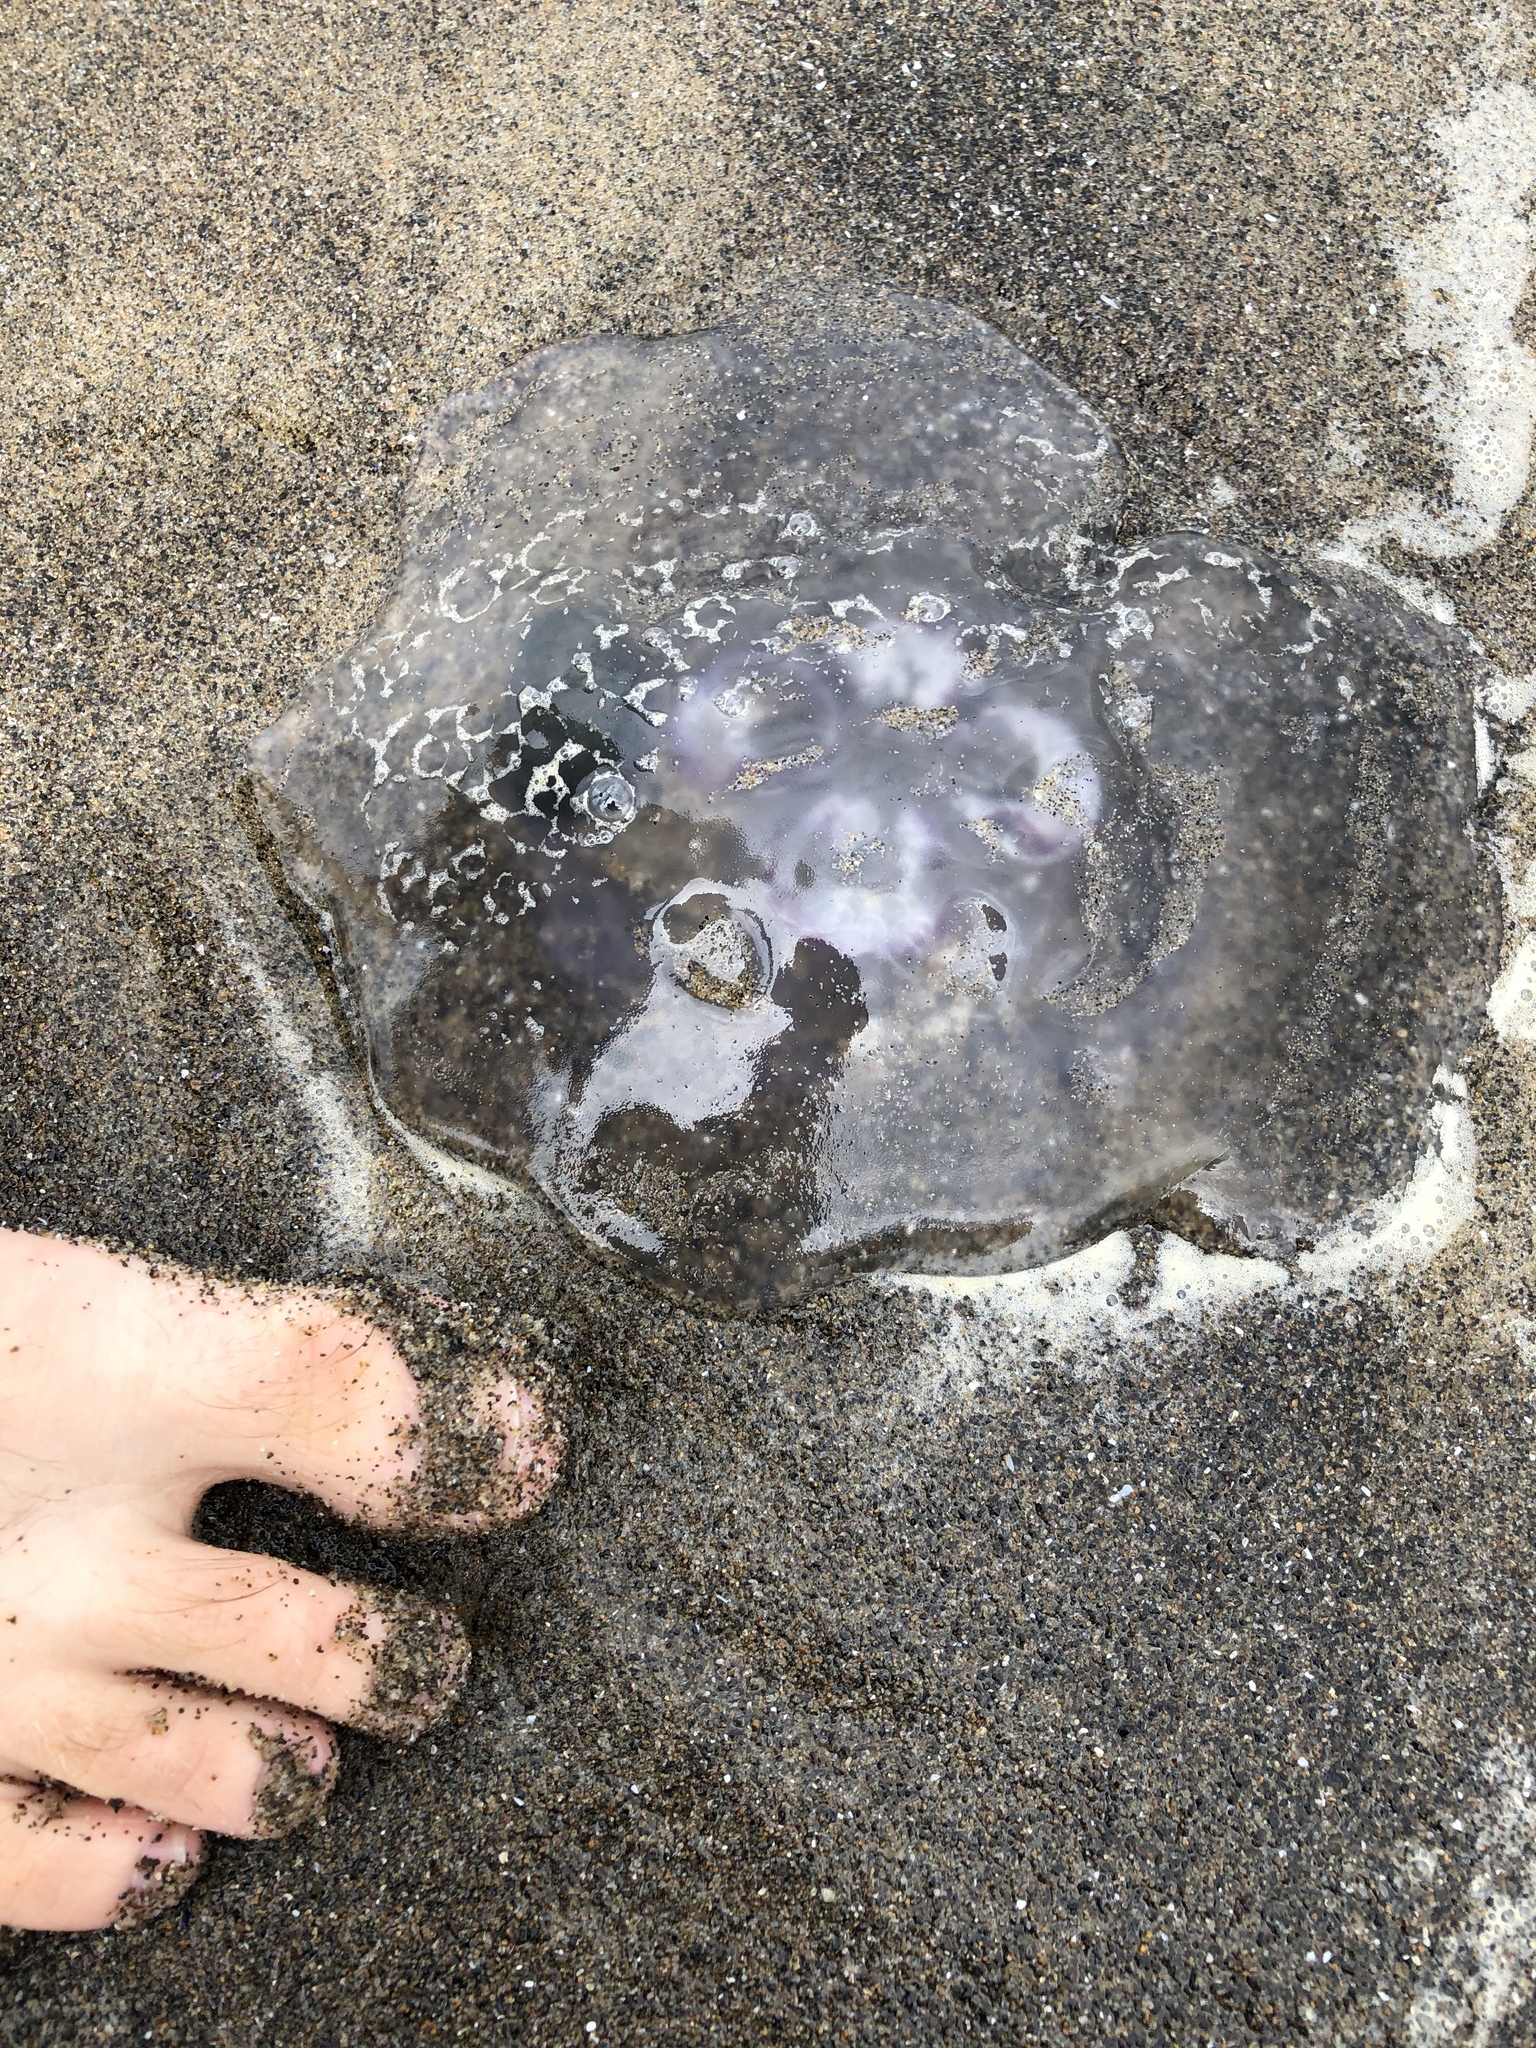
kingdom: Animalia
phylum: Cnidaria
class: Scyphozoa
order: Semaeostomeae
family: Ulmaridae
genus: Aurelia
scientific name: Aurelia labiata
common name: Pacific moon jelly
